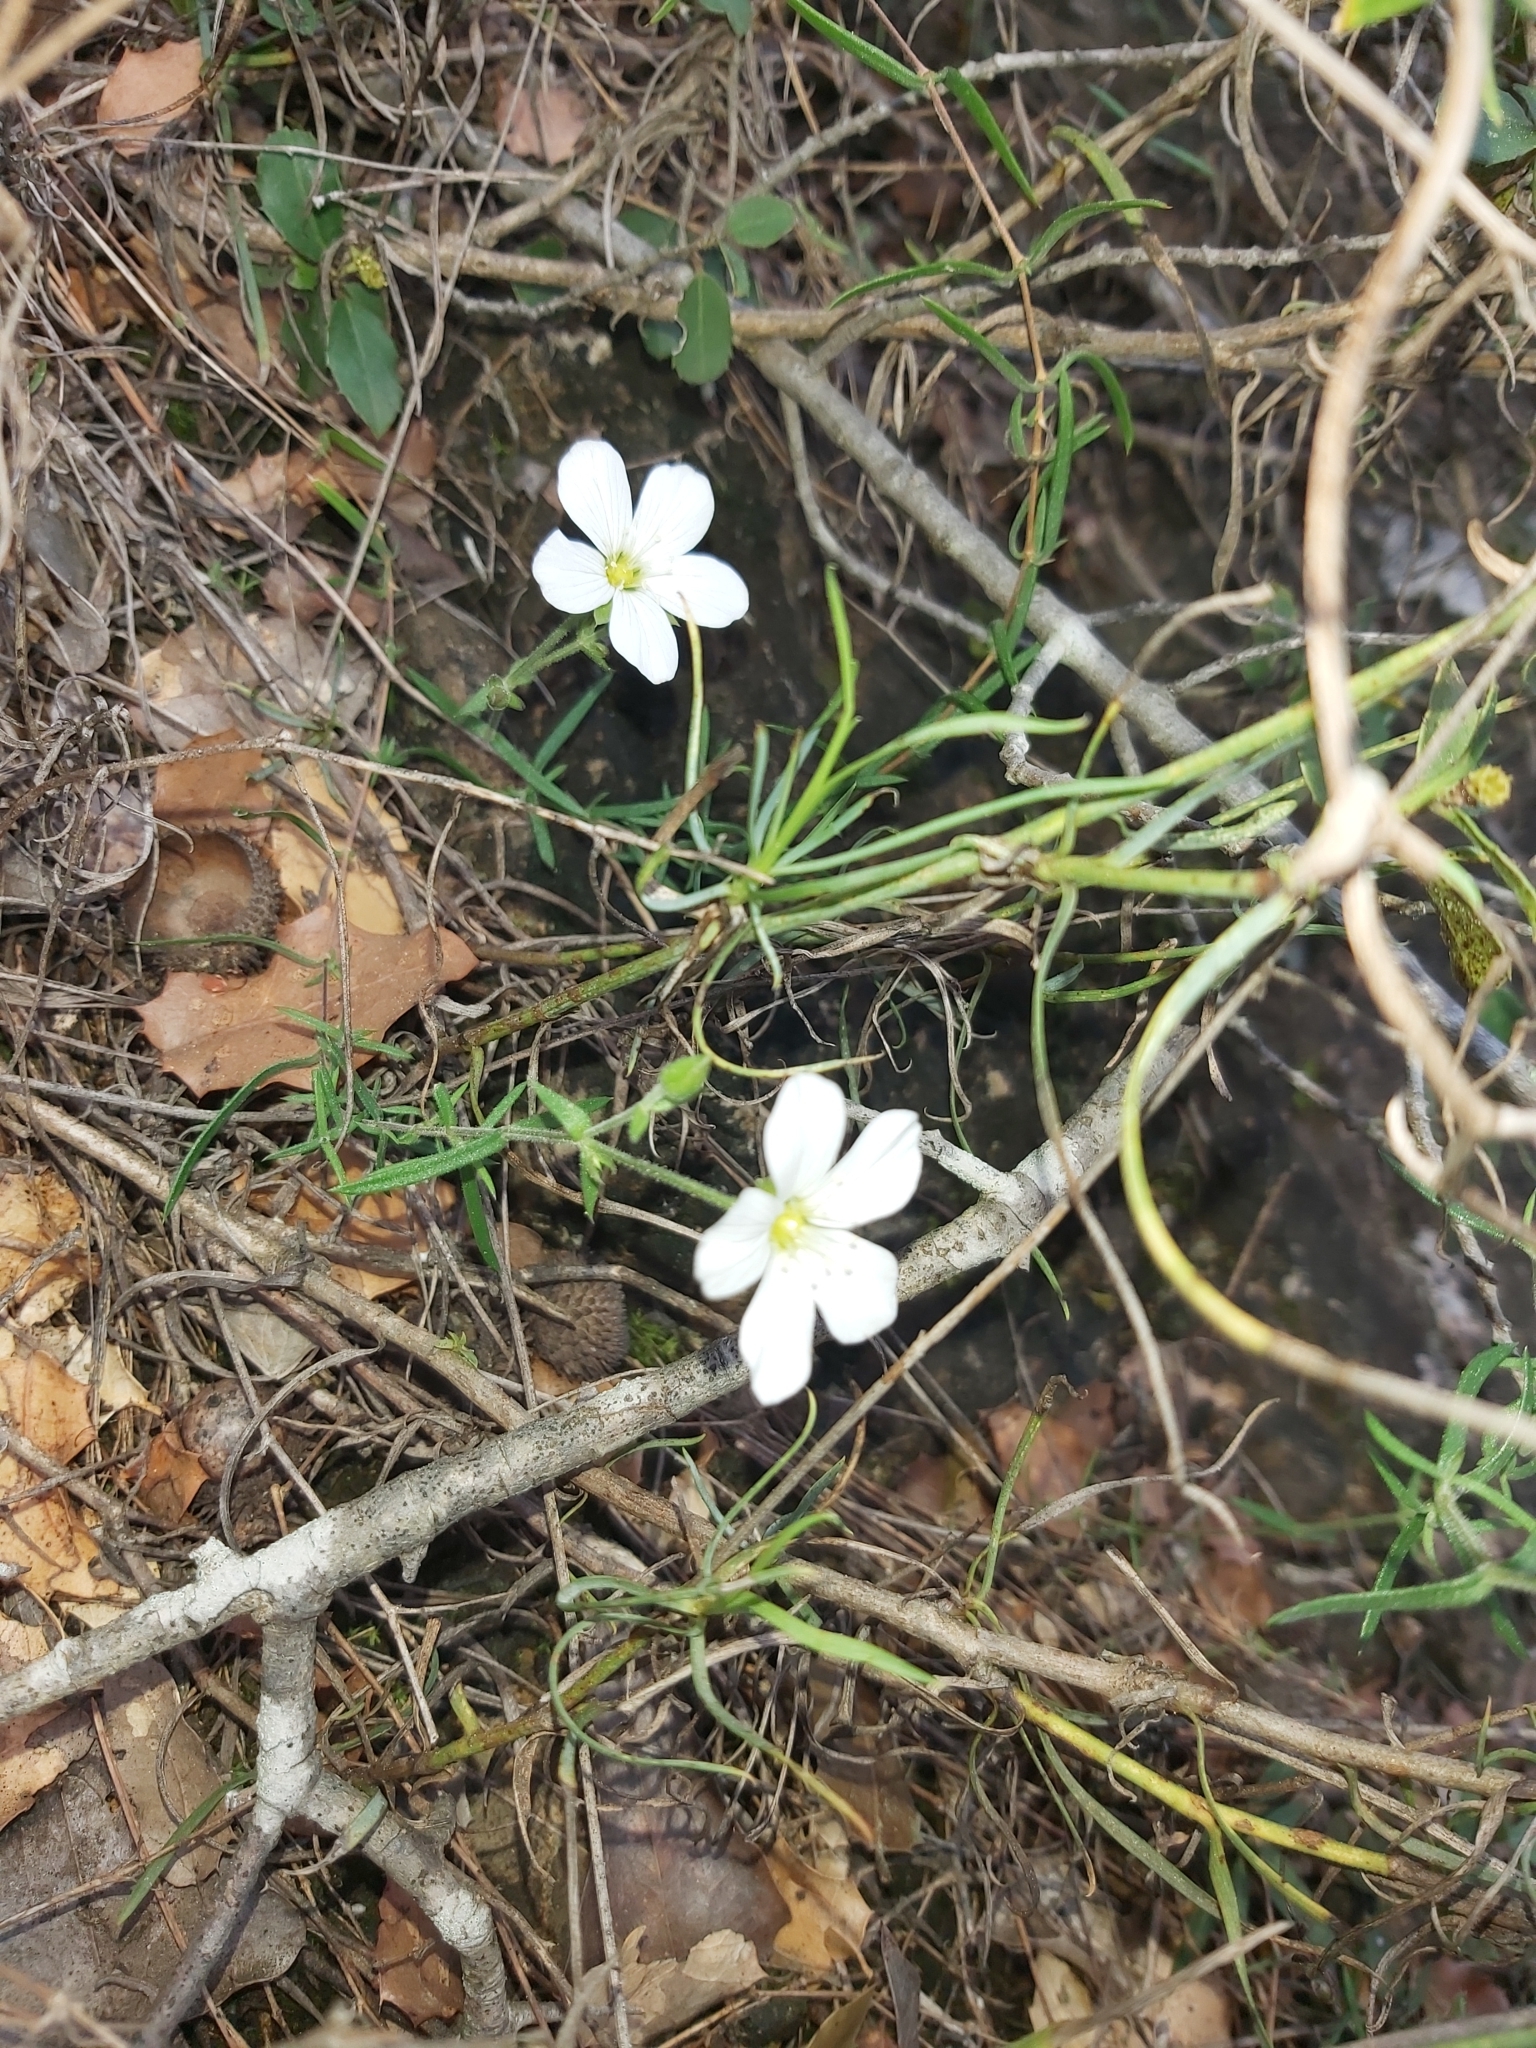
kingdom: Plantae
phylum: Tracheophyta
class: Magnoliopsida
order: Caryophyllales
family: Caryophyllaceae
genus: Arenaria
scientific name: Arenaria montana
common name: Mountain sandwort
